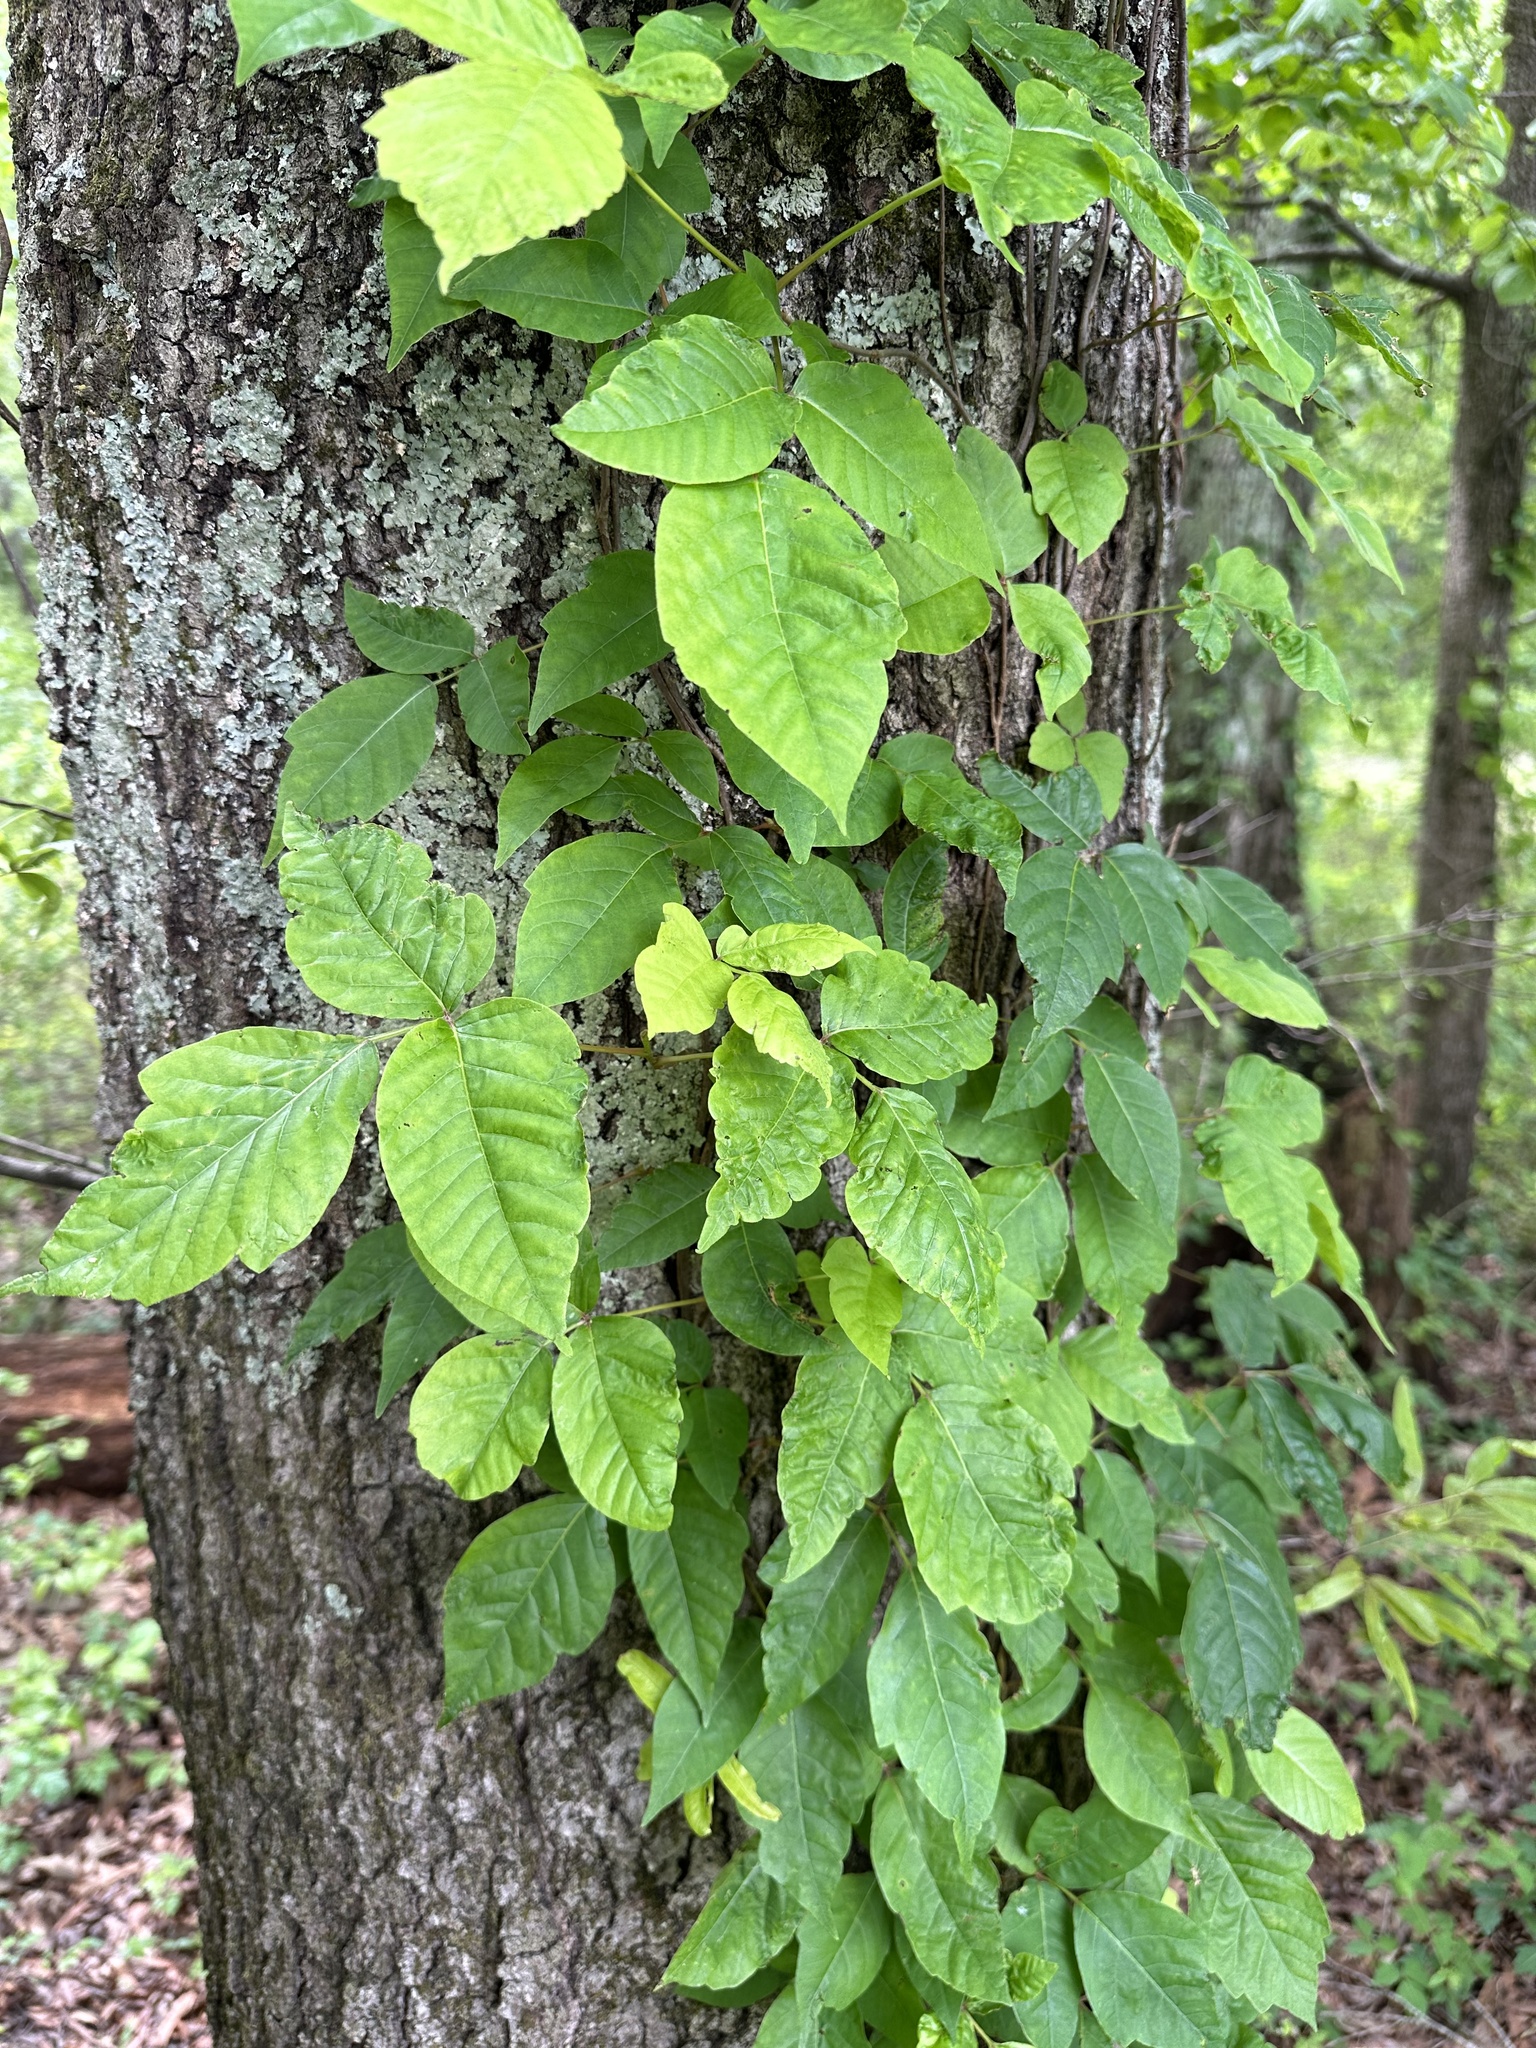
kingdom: Plantae
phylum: Tracheophyta
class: Magnoliopsida
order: Sapindales
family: Anacardiaceae
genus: Toxicodendron
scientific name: Toxicodendron radicans
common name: Poison ivy
